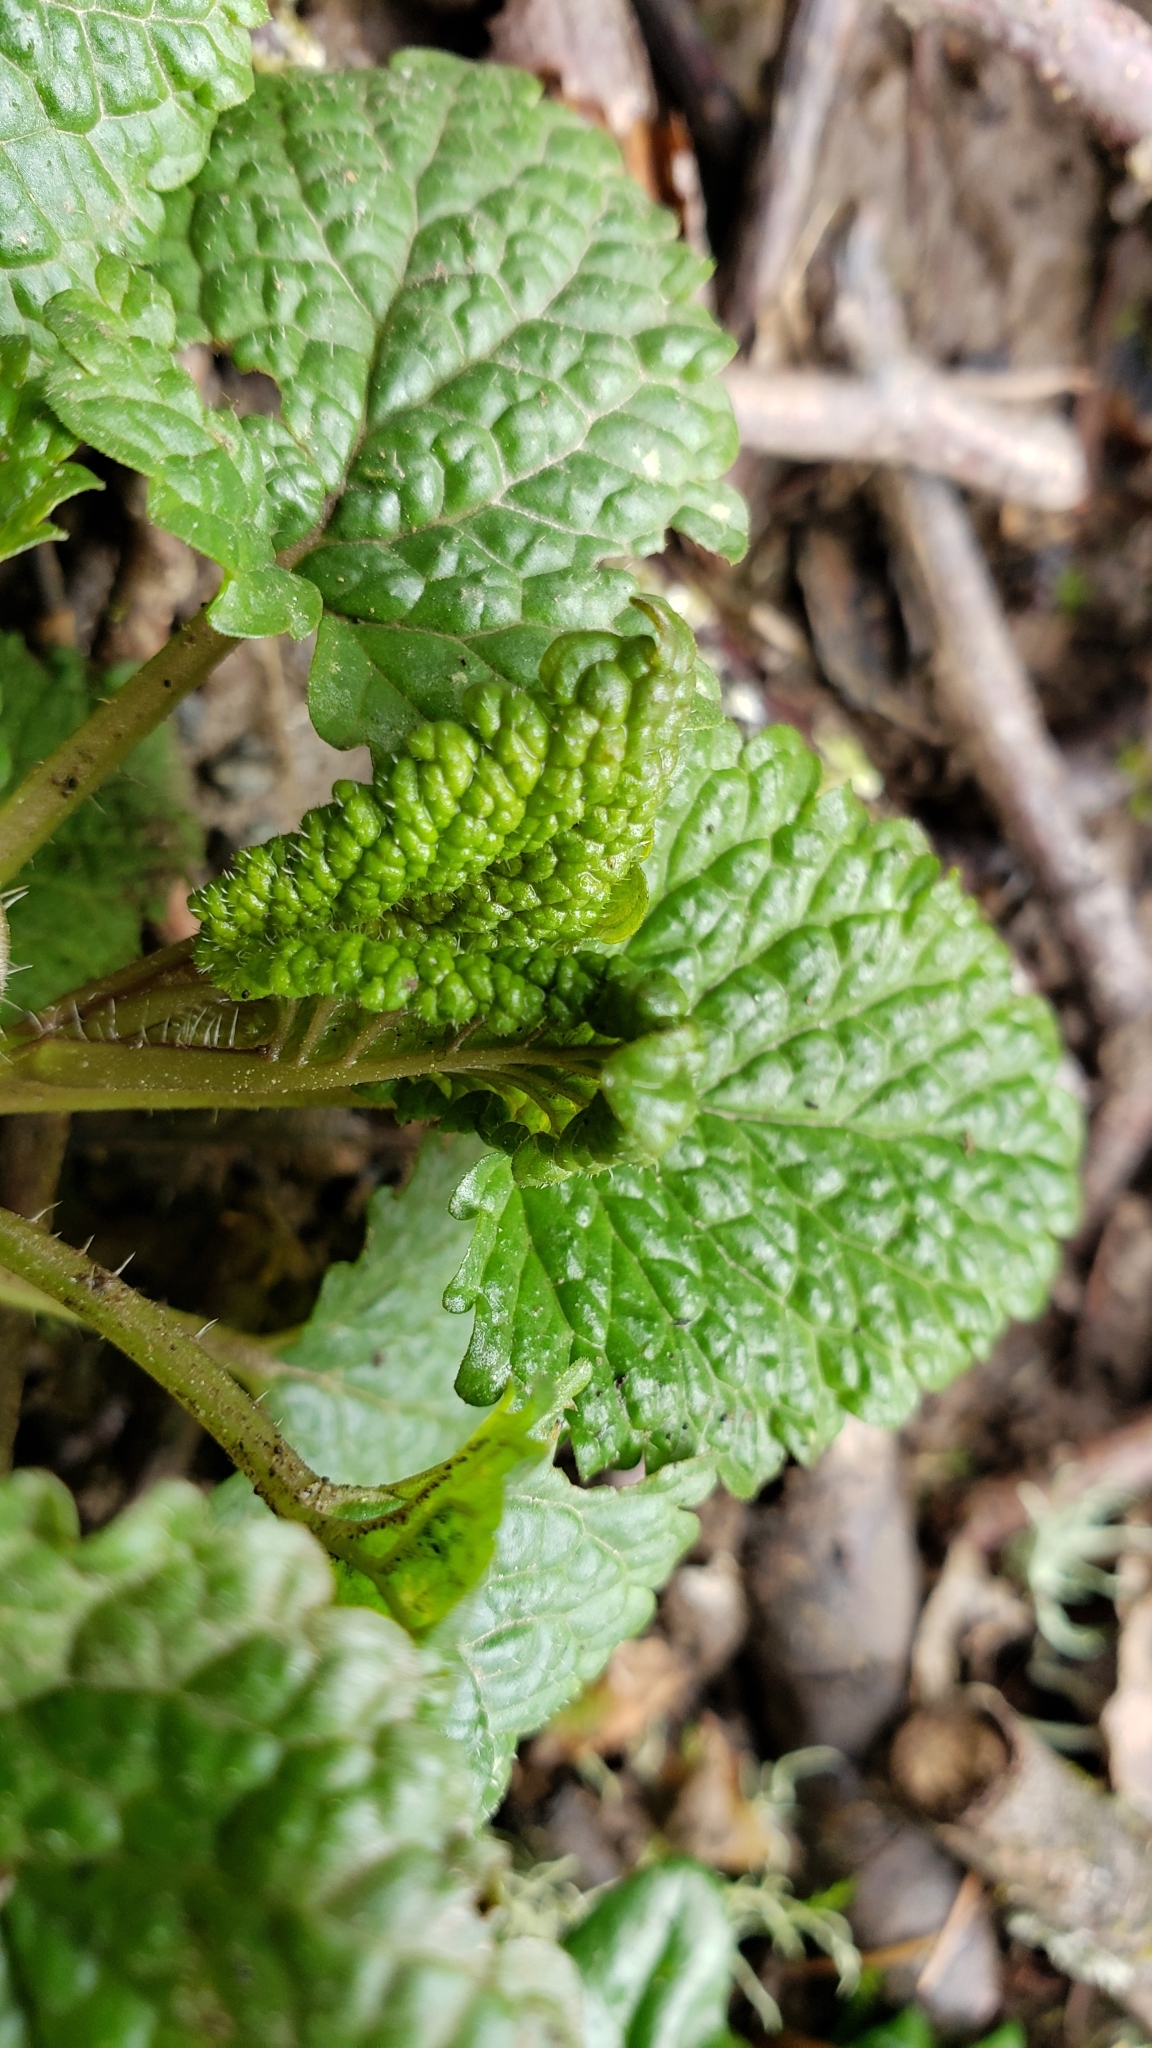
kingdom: Plantae
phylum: Tracheophyta
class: Magnoliopsida
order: Lamiales
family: Lamiaceae
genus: Melissa
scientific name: Melissa officinalis
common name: Balm
